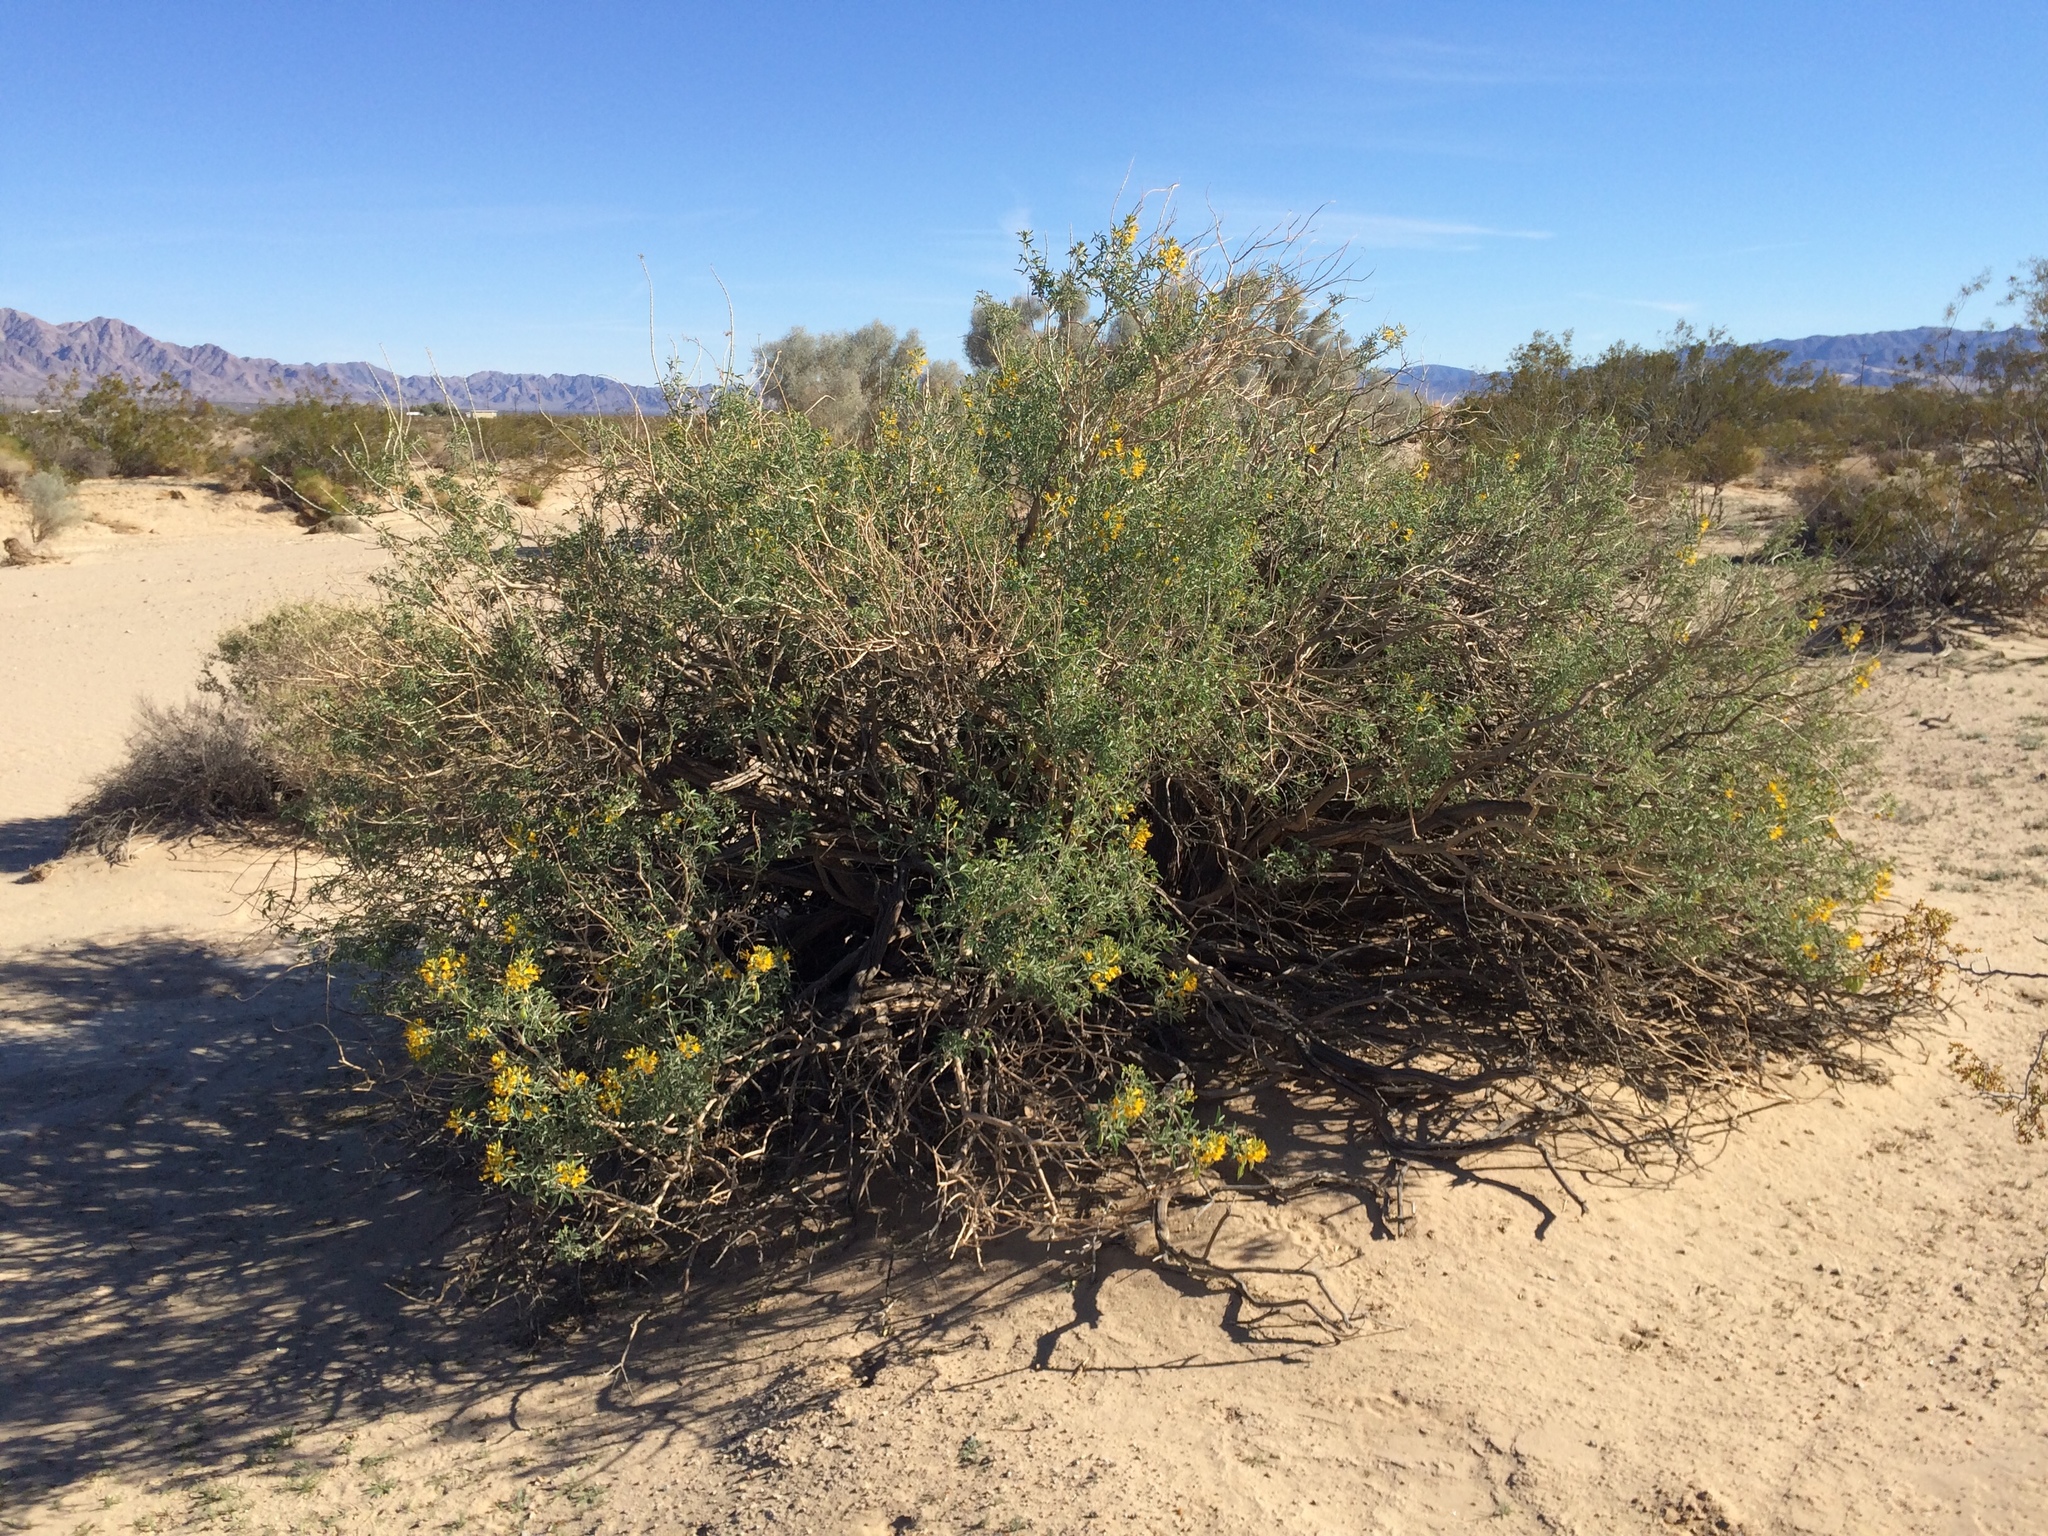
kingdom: Plantae
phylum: Tracheophyta
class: Magnoliopsida
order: Brassicales
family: Cleomaceae
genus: Cleomella
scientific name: Cleomella arborea
